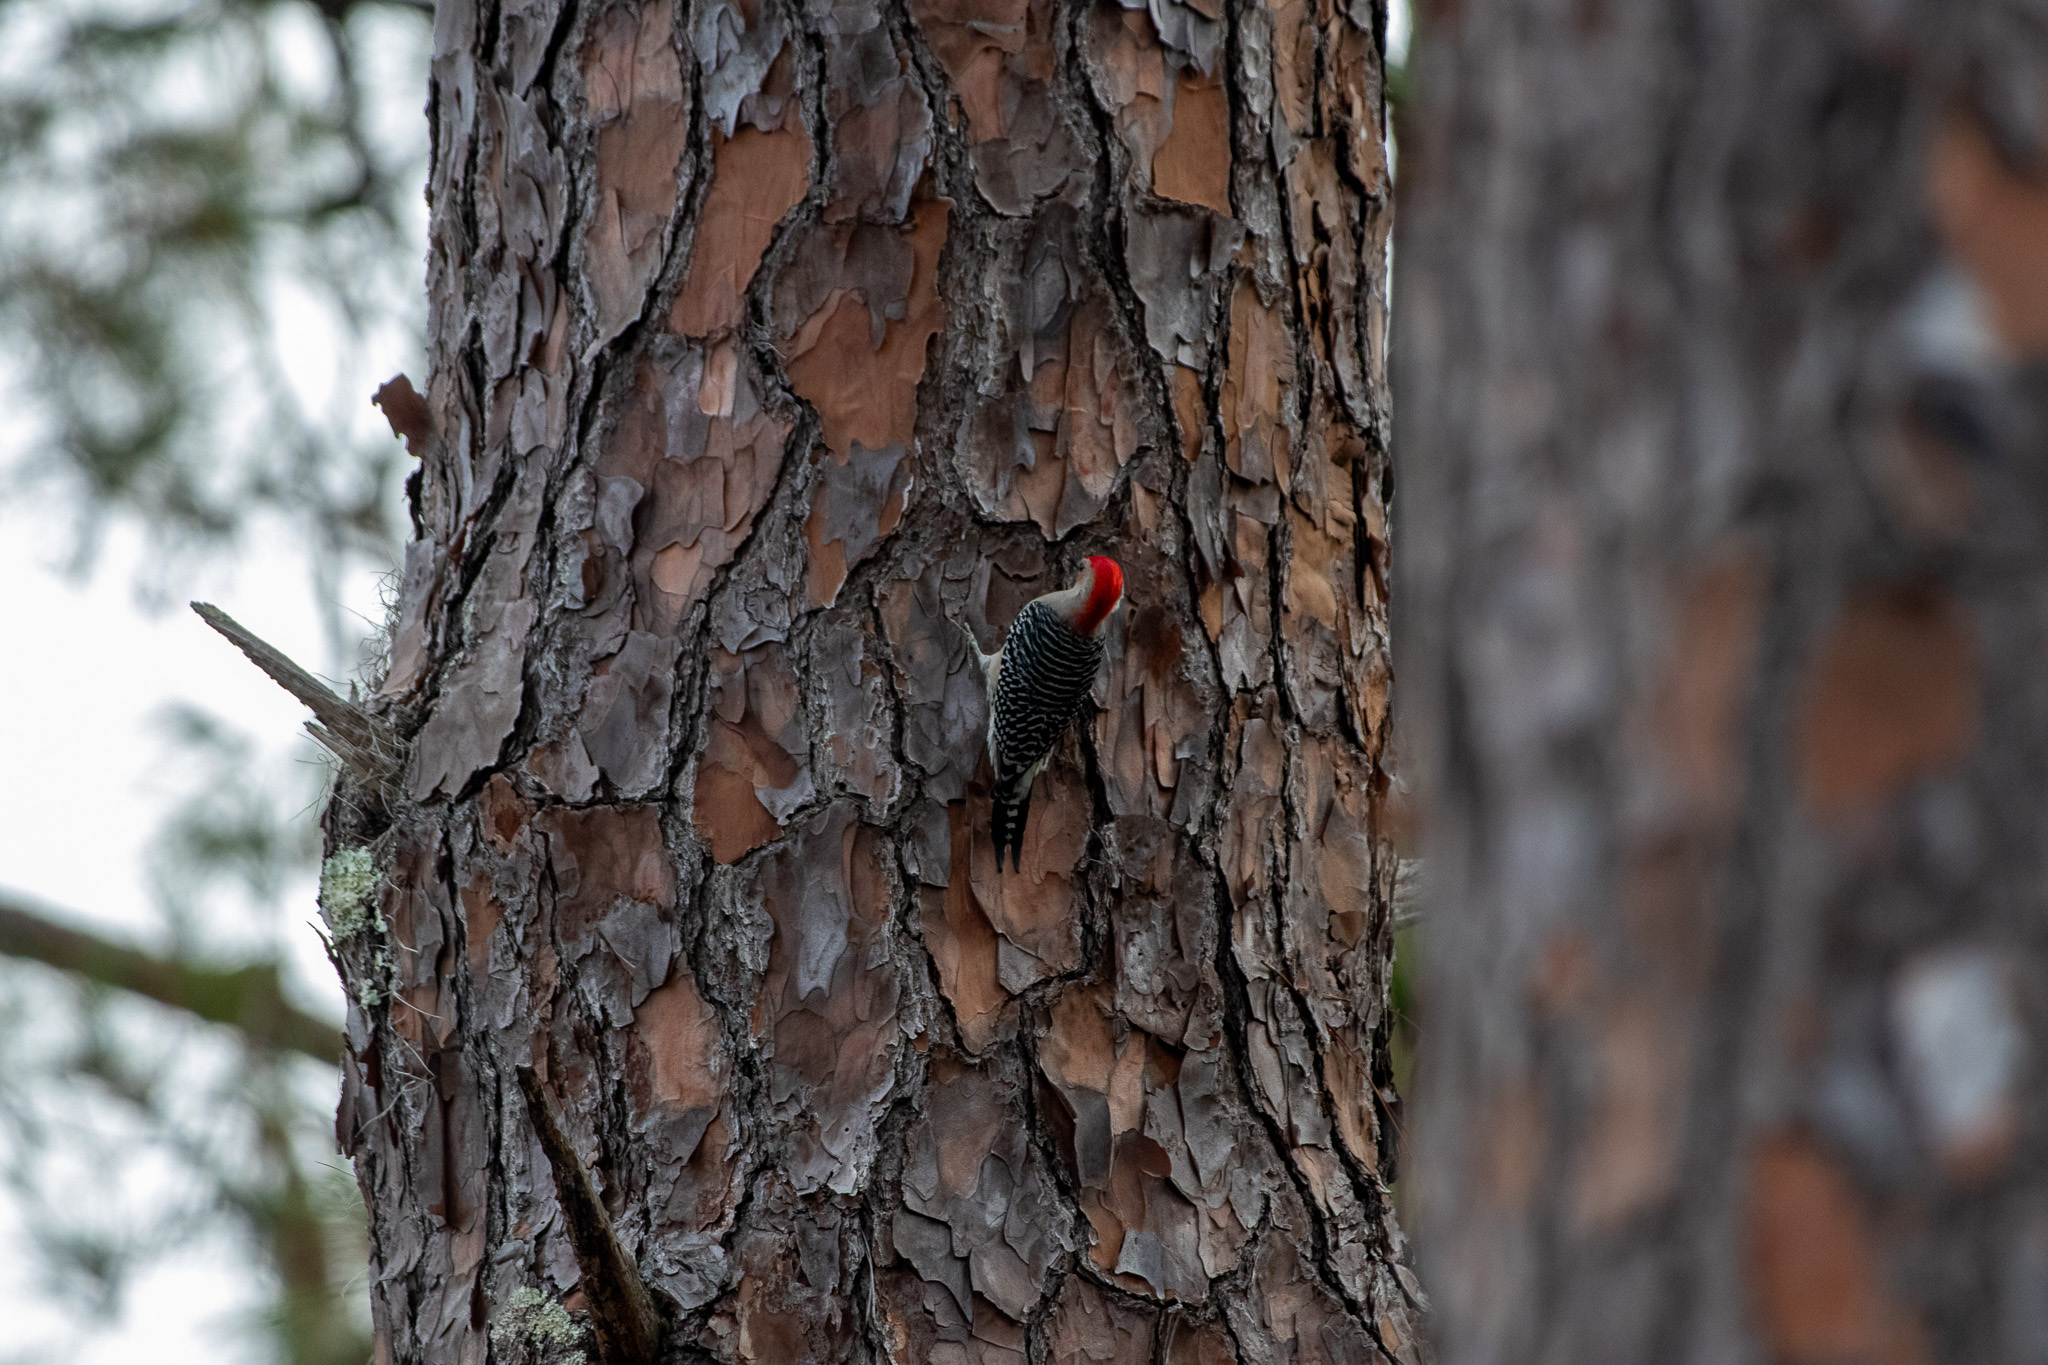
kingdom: Animalia
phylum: Chordata
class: Aves
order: Piciformes
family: Picidae
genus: Melanerpes
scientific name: Melanerpes carolinus
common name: Red-bellied woodpecker
